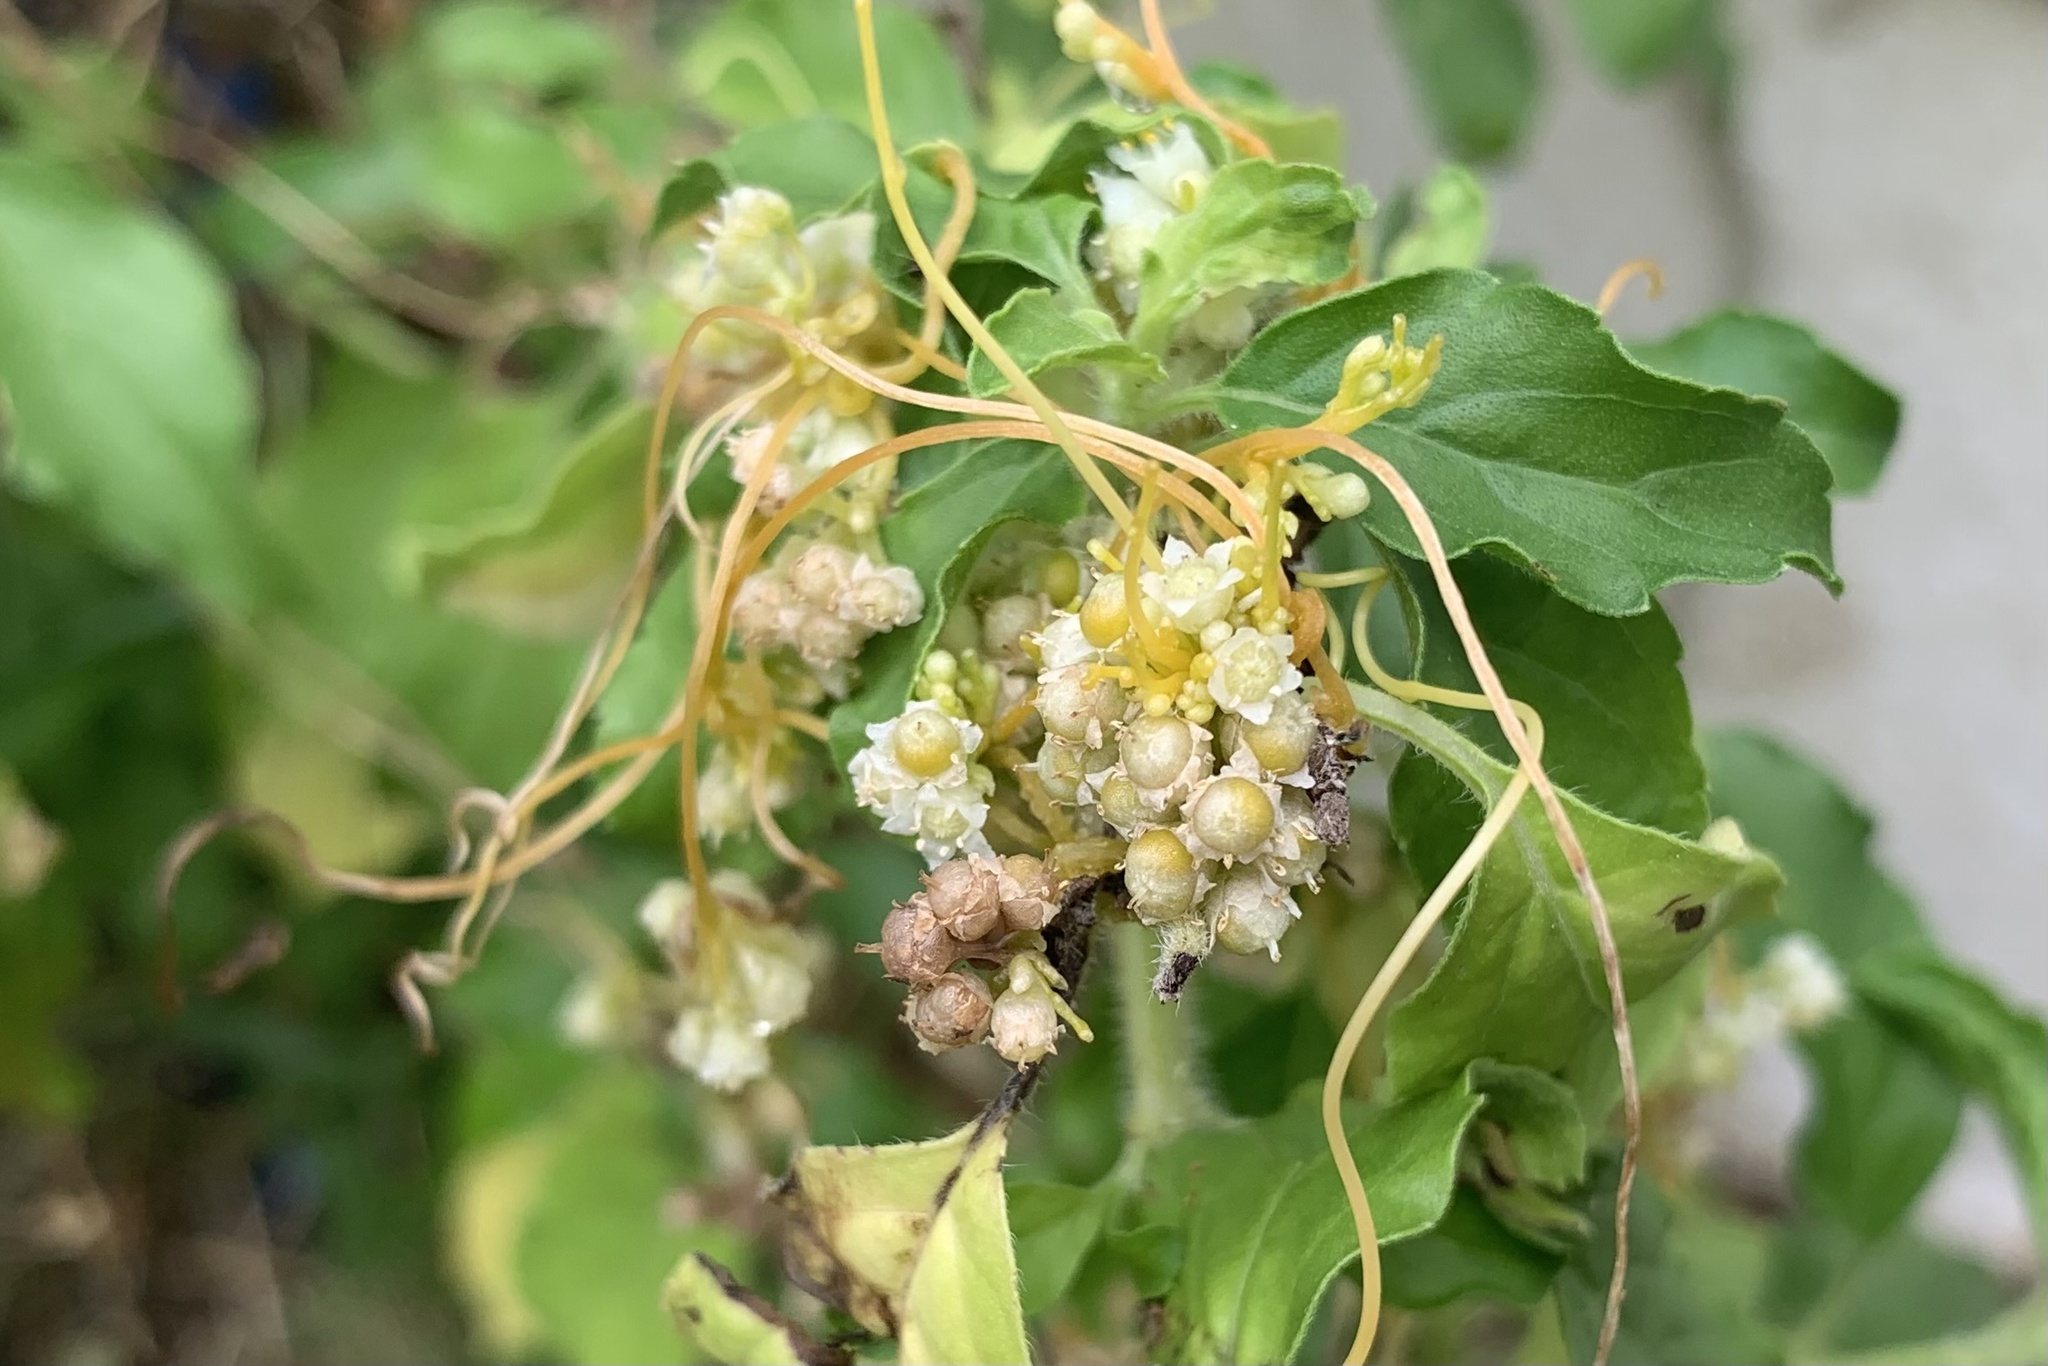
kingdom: Plantae
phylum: Tracheophyta
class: Magnoliopsida
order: Solanales
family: Convolvulaceae
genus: Cuscuta
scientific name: Cuscuta chinensis
